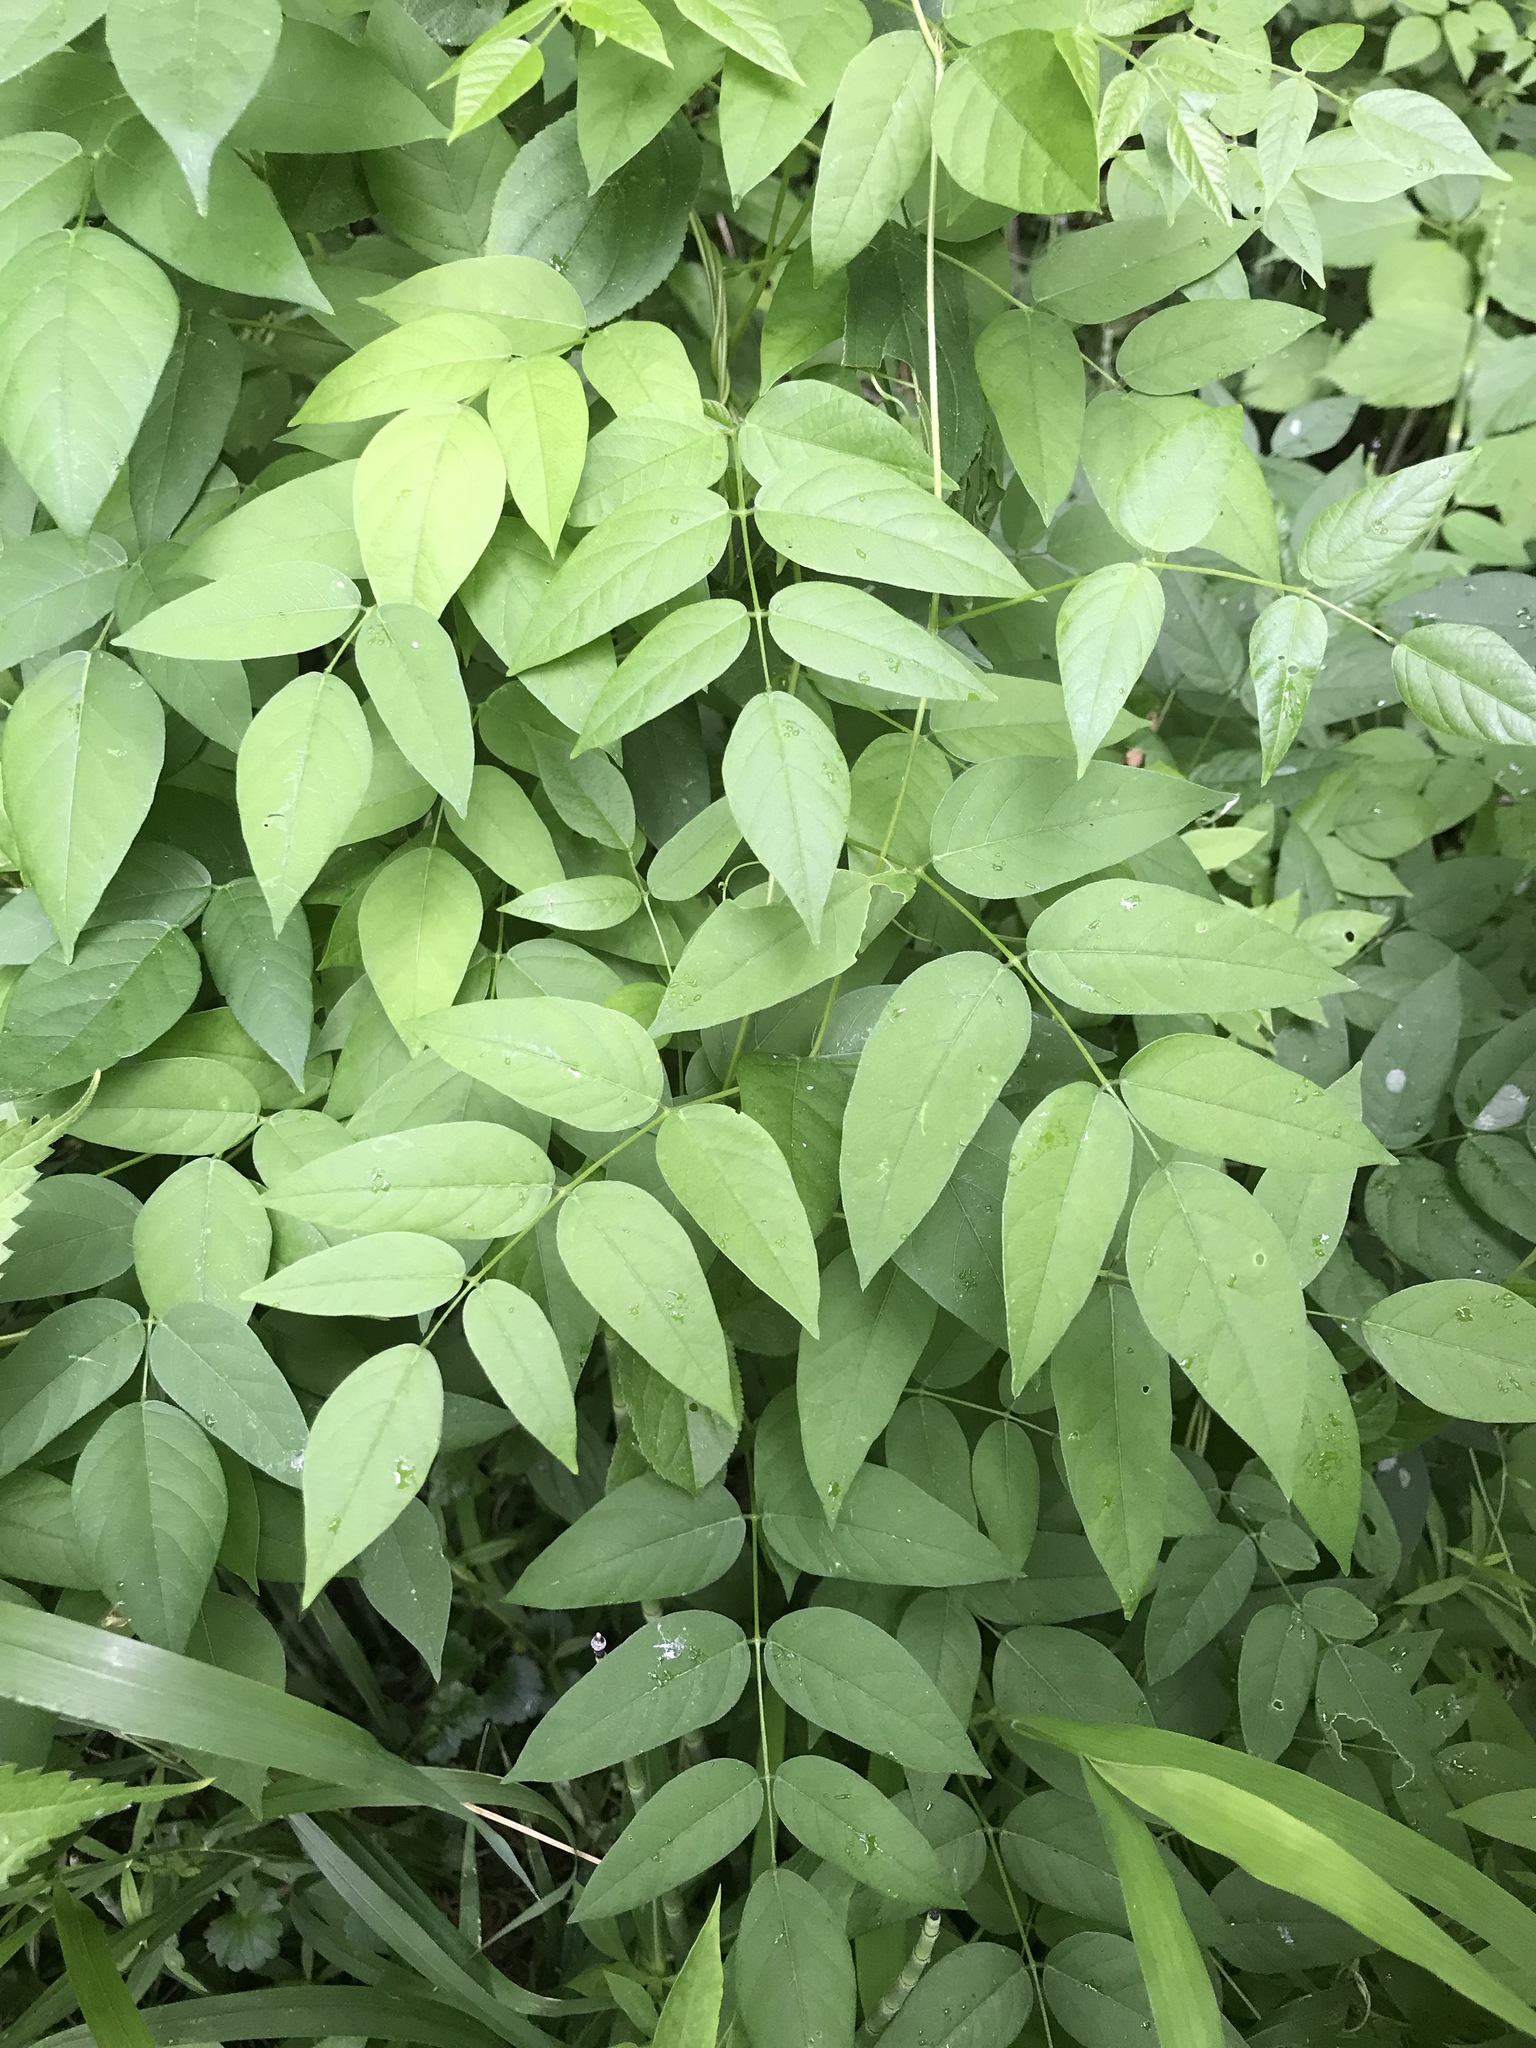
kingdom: Plantae
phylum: Tracheophyta
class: Magnoliopsida
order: Fabales
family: Fabaceae
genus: Apios
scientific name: Apios americana
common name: American potato-bean
